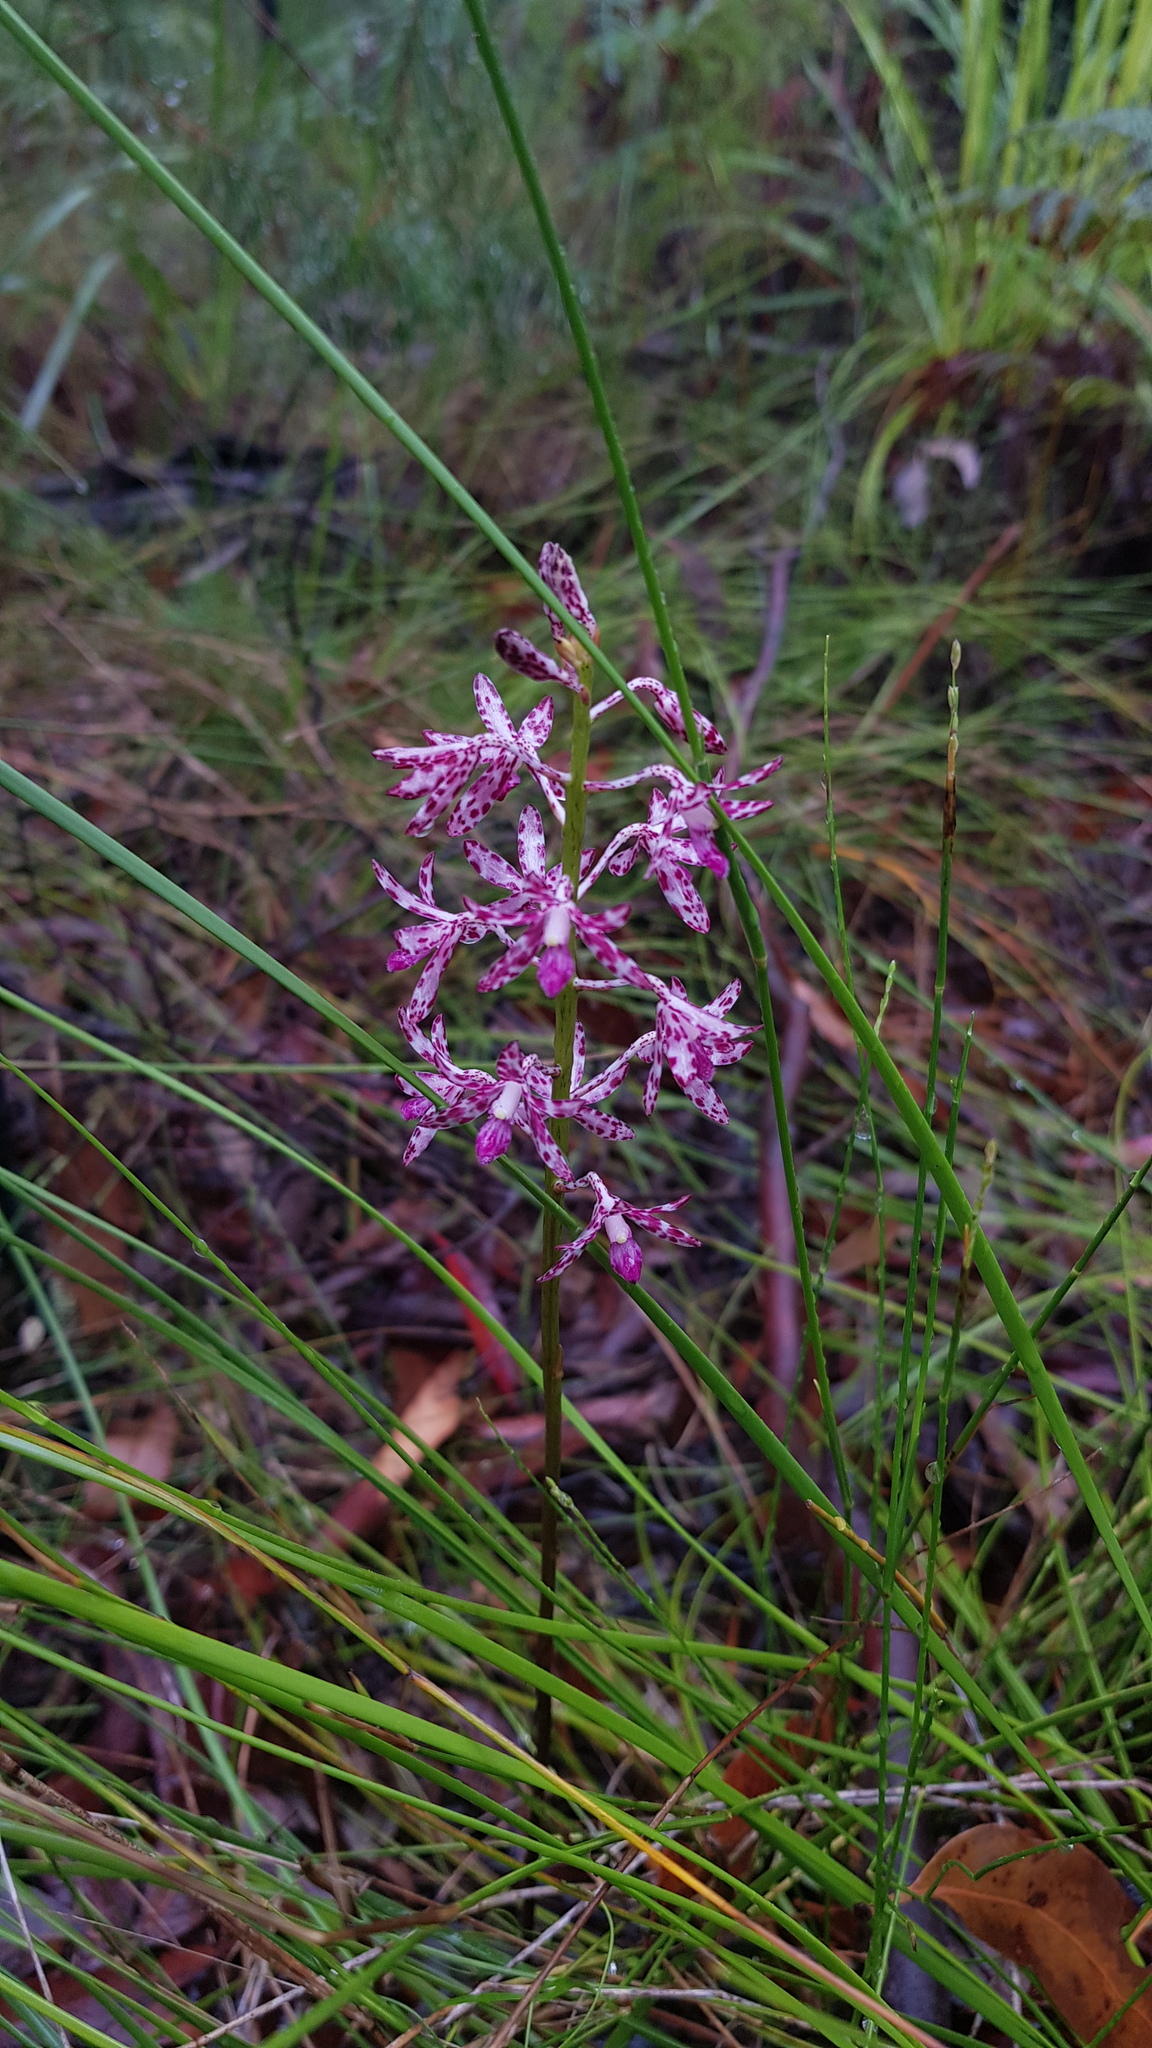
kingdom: Plantae
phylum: Tracheophyta
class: Liliopsida
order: Asparagales
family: Orchidaceae
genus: Dipodium
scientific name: Dipodium variegatum
